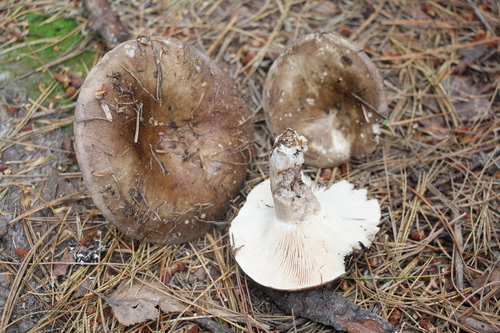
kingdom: Fungi
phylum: Basidiomycota
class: Agaricomycetes
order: Russulales
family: Russulaceae
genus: Russula
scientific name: Russula acrifolia
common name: Hotlips brittlegill
